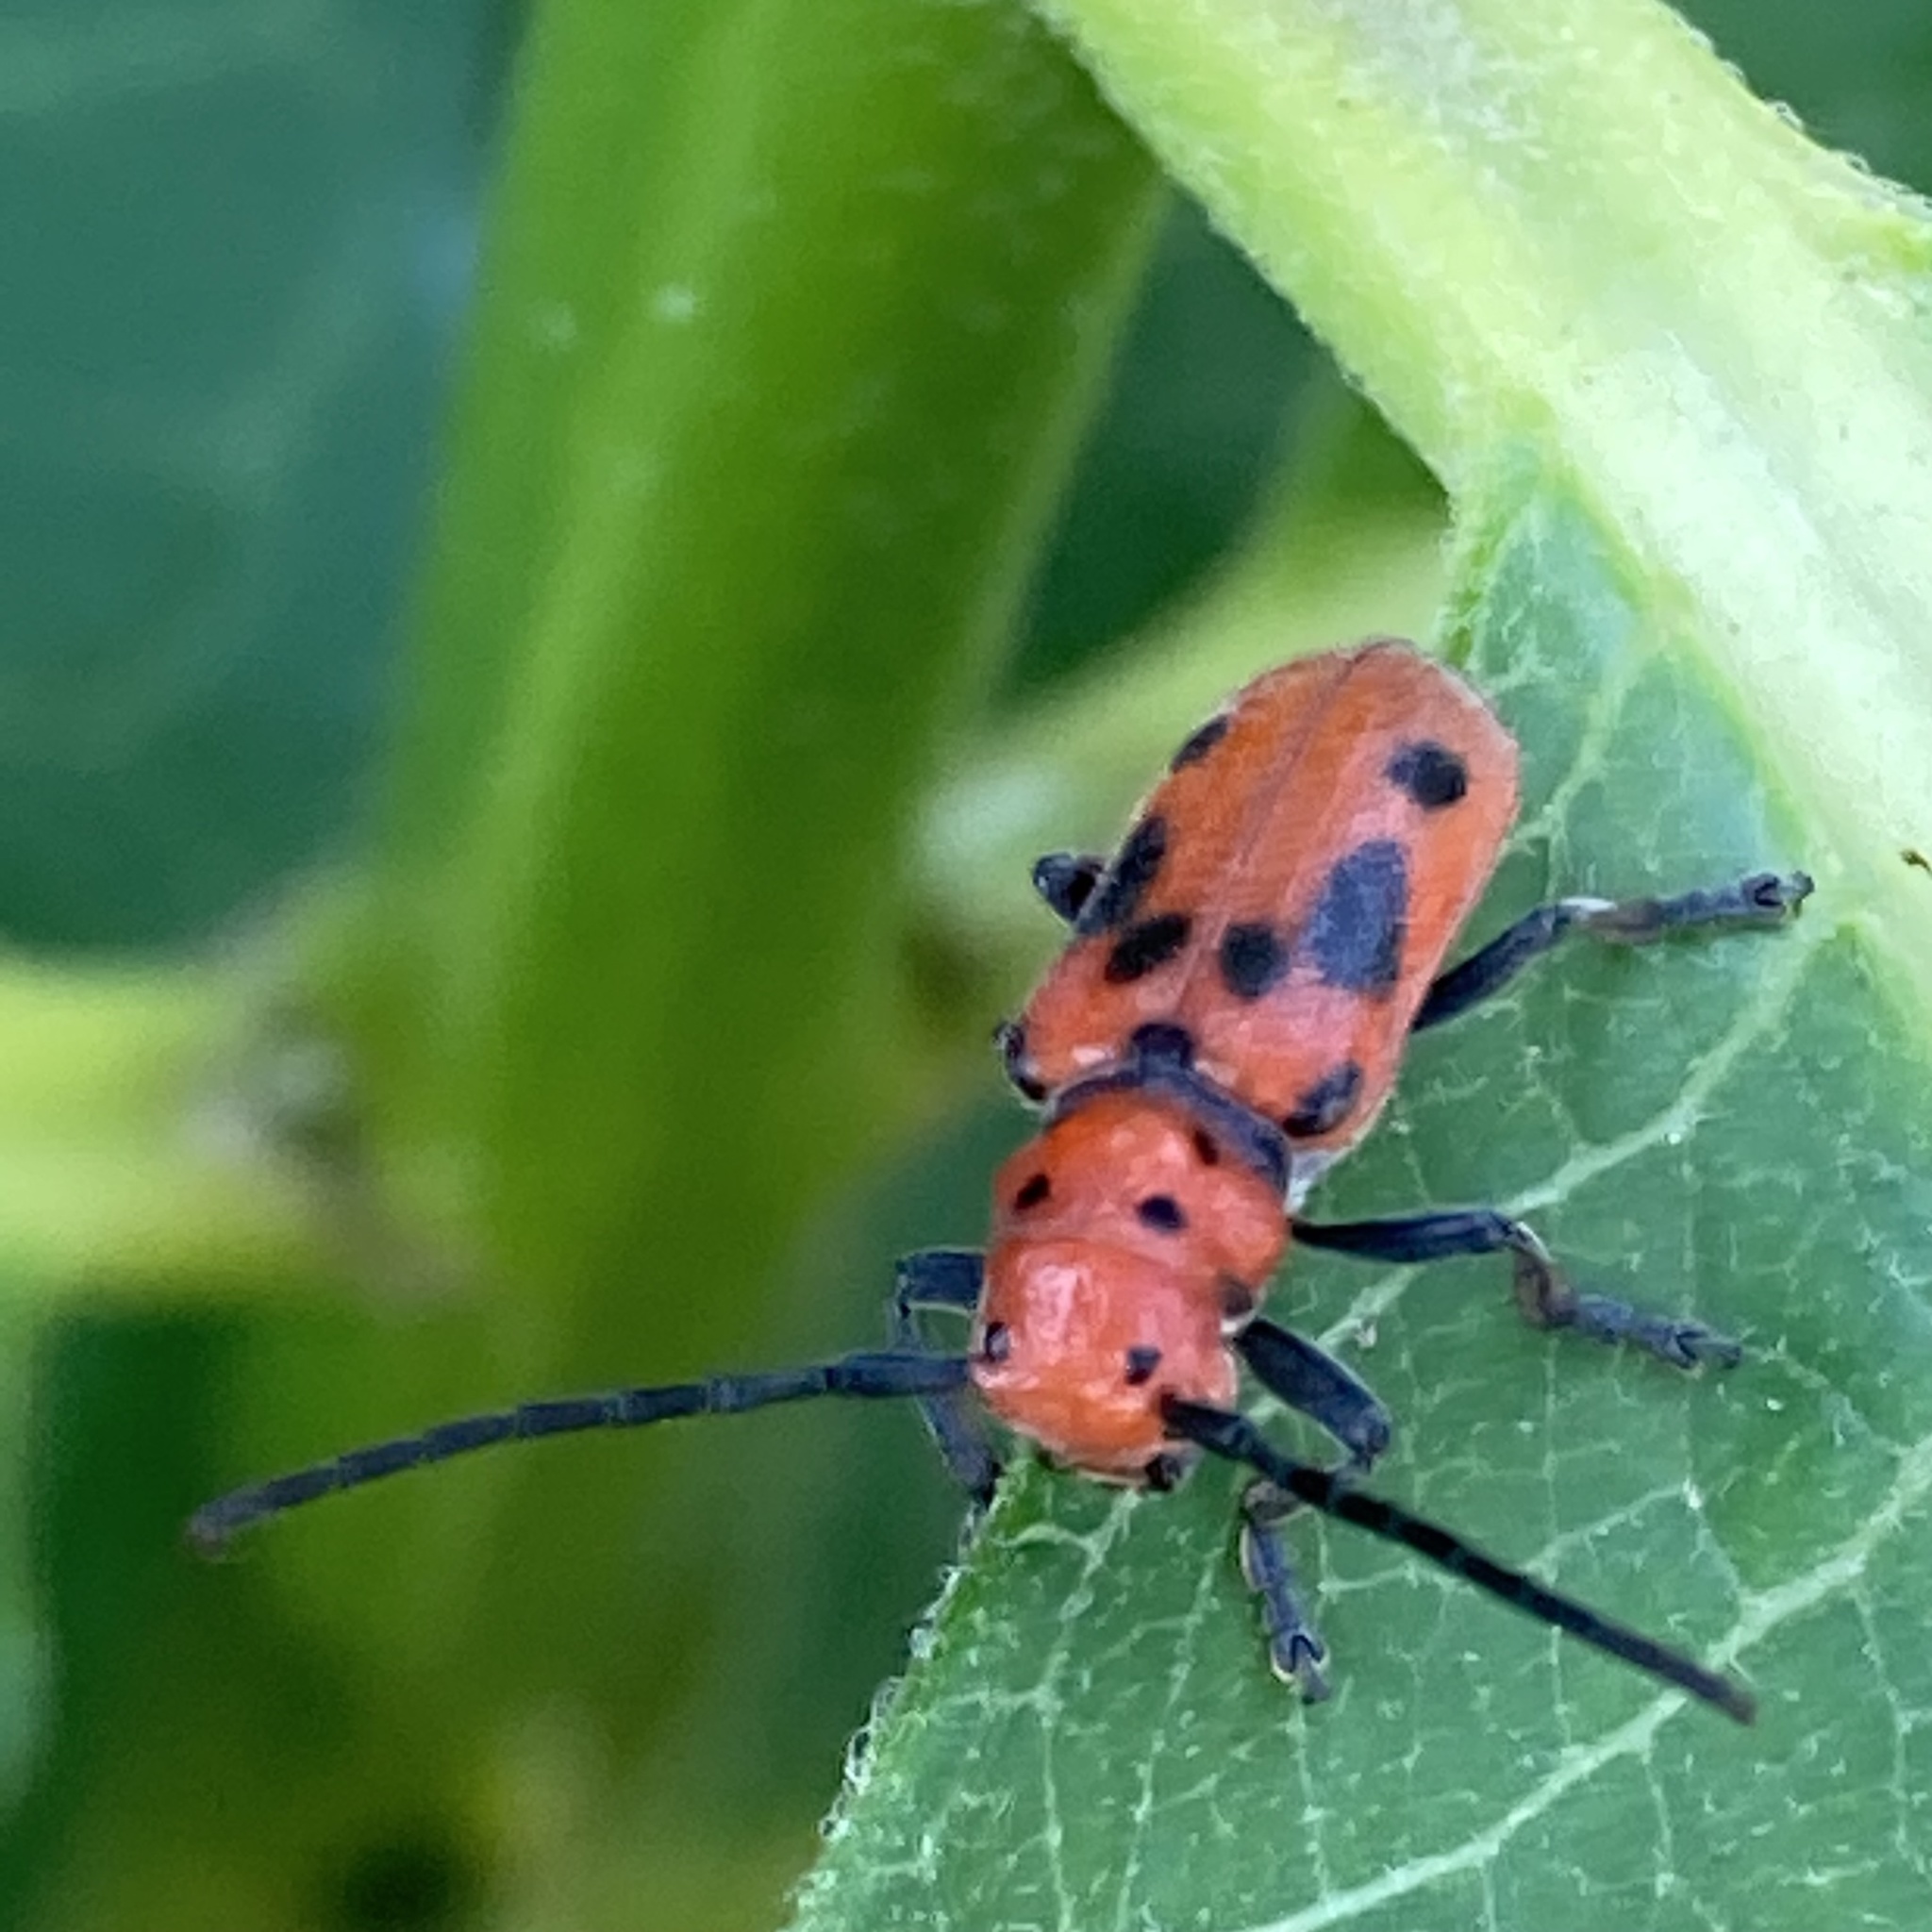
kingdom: Animalia
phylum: Arthropoda
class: Insecta
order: Coleoptera
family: Cerambycidae
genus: Tetraopes
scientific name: Tetraopes tetrophthalmus
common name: Red milkweed beetle
